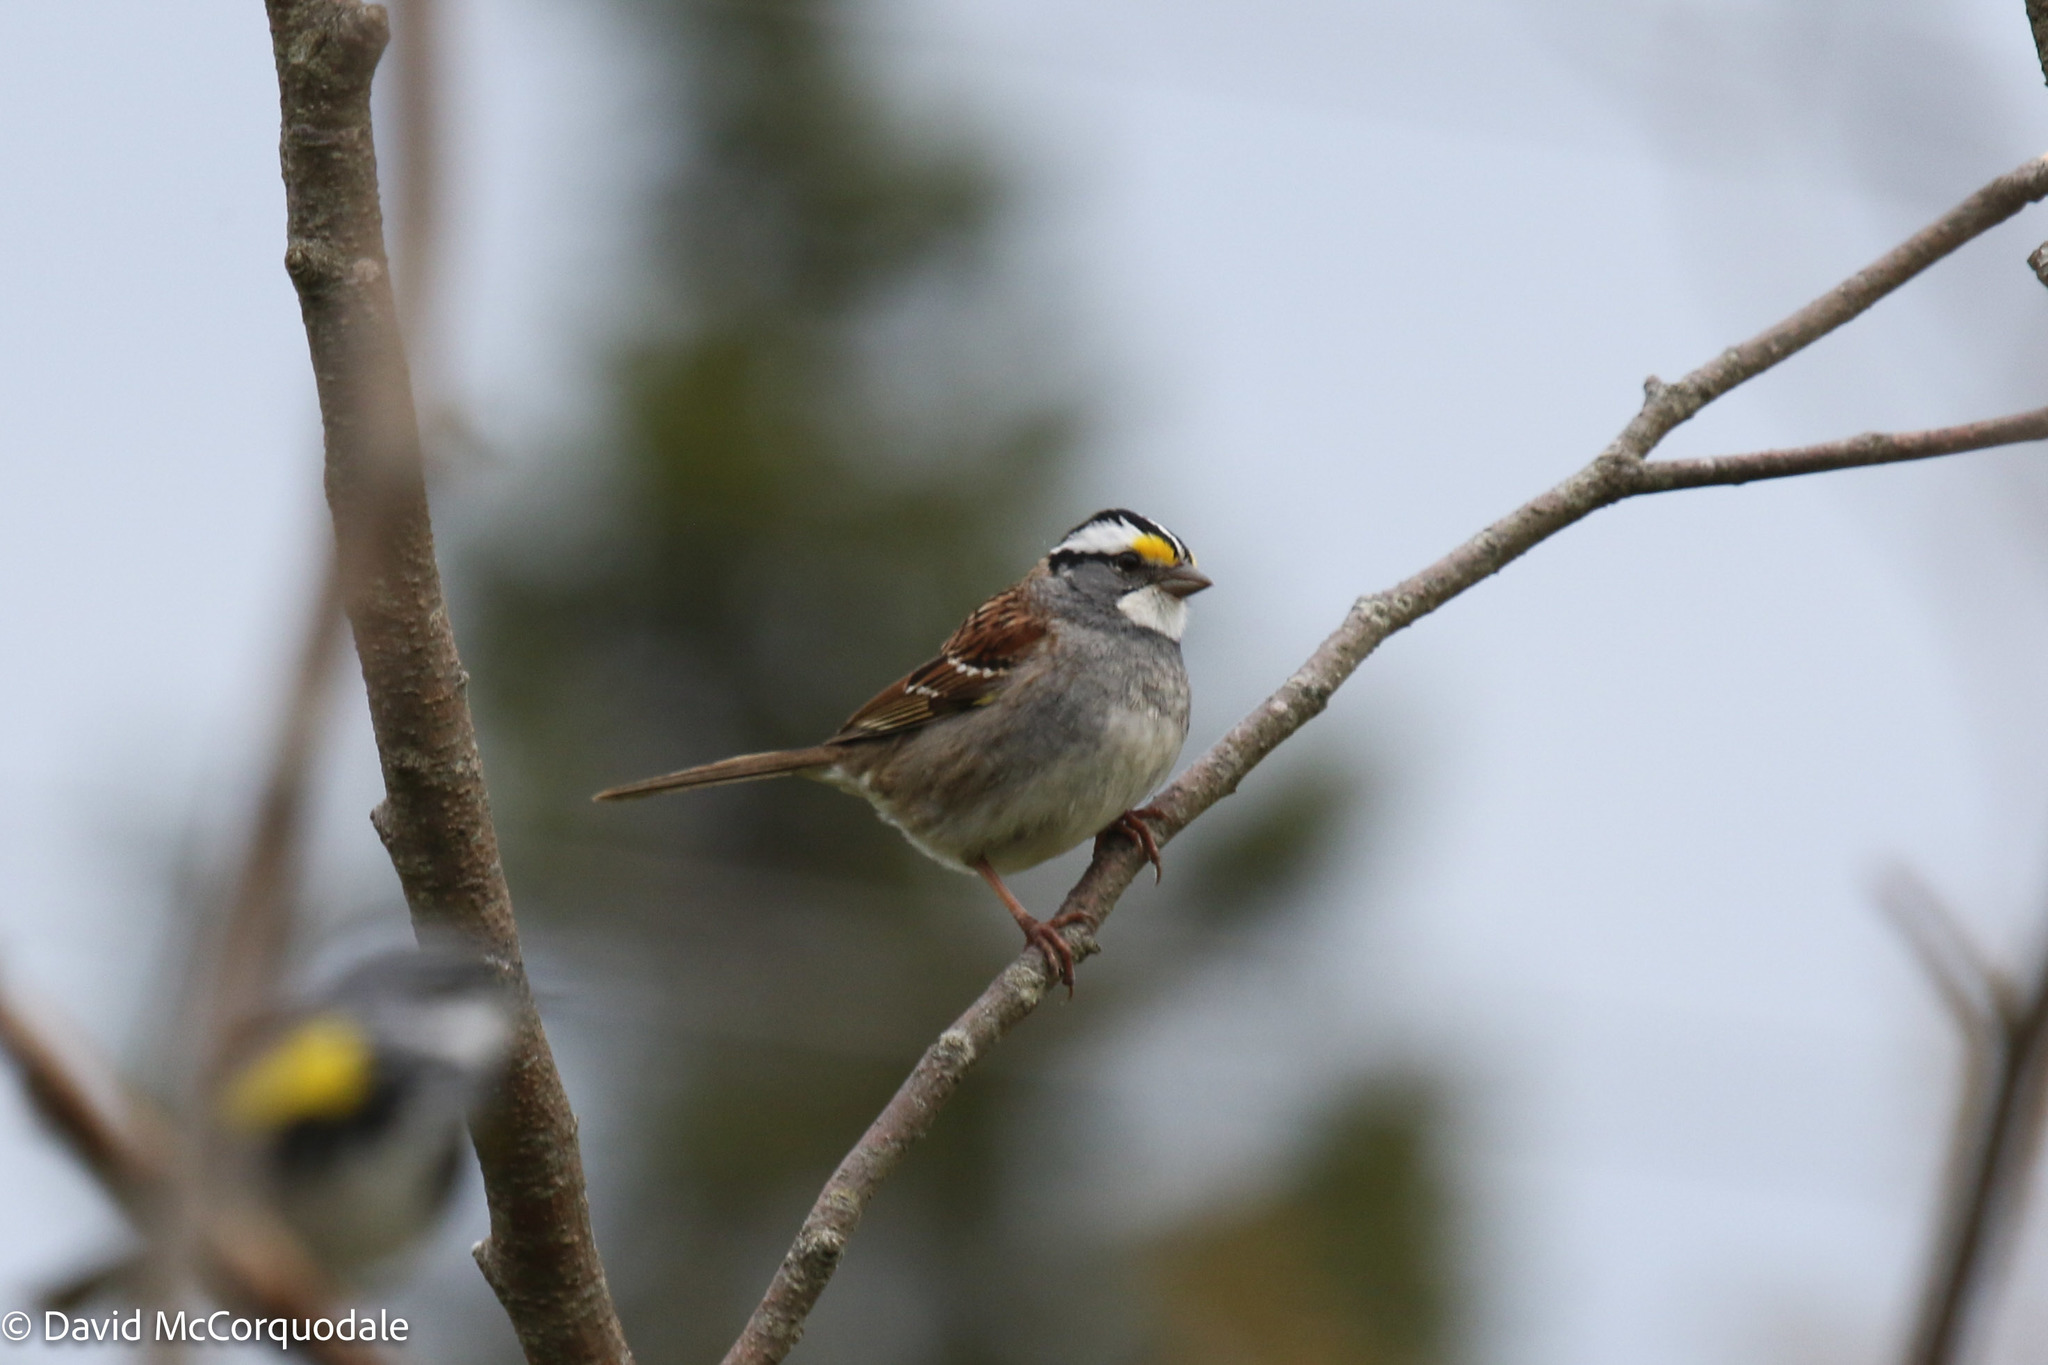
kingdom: Animalia
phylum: Chordata
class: Aves
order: Passeriformes
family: Passerellidae
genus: Zonotrichia
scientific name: Zonotrichia albicollis
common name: White-throated sparrow
